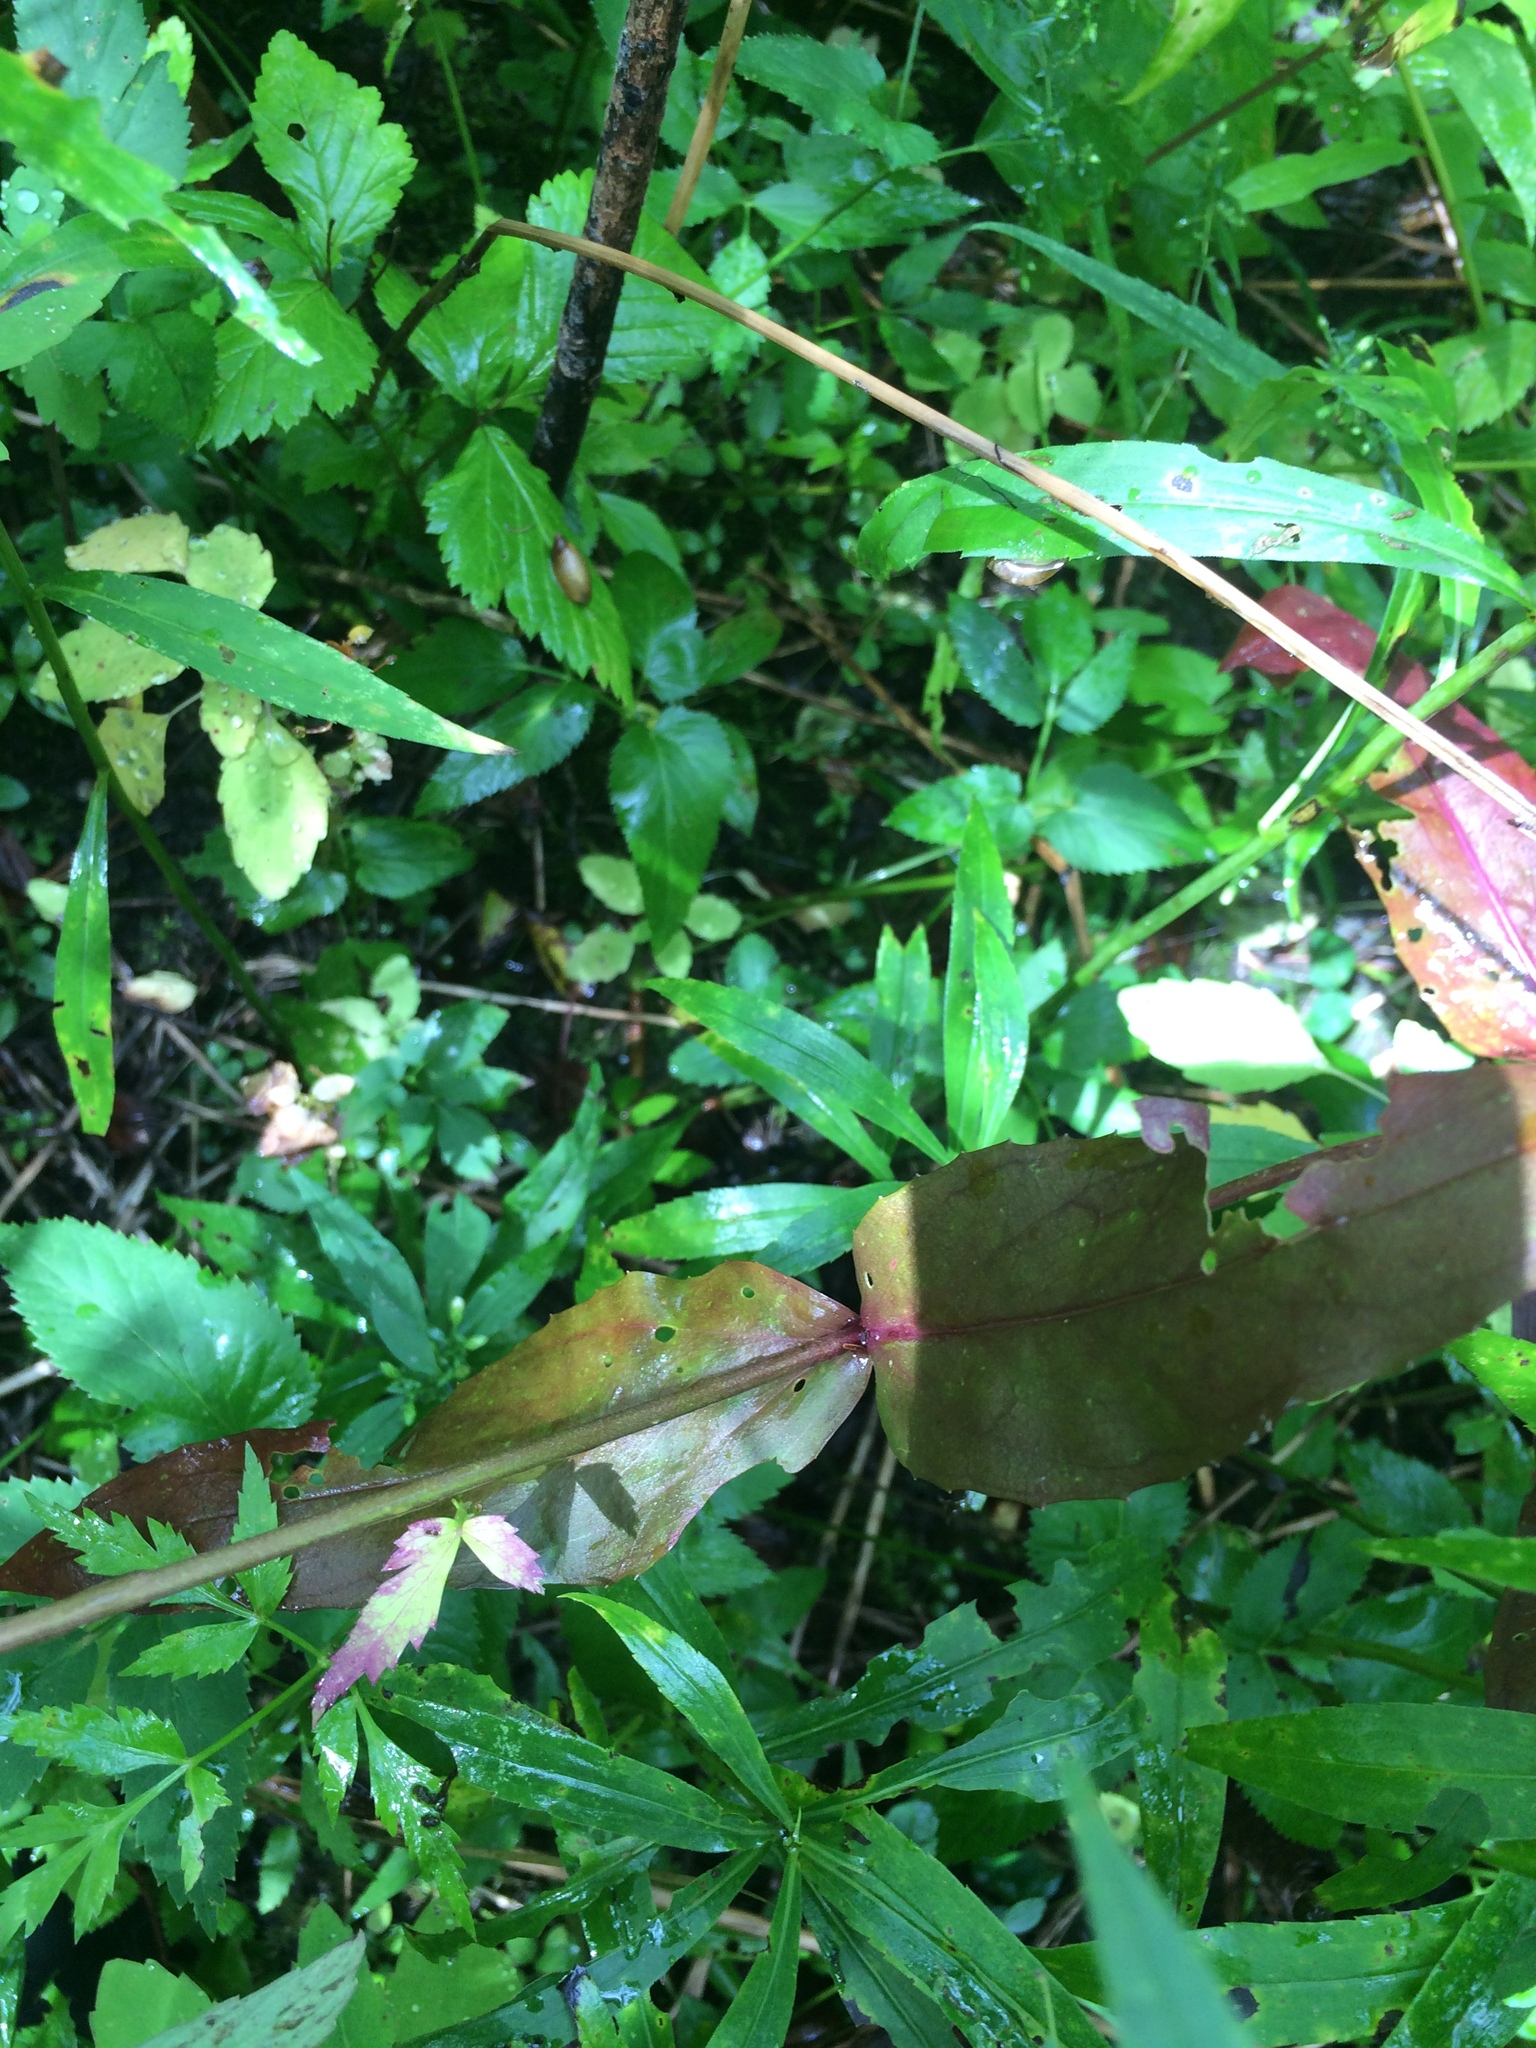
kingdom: Plantae
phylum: Tracheophyta
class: Magnoliopsida
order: Lamiales
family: Plantaginaceae
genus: Penstemon
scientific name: Penstemon digitalis
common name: Foxglove beardtongue
